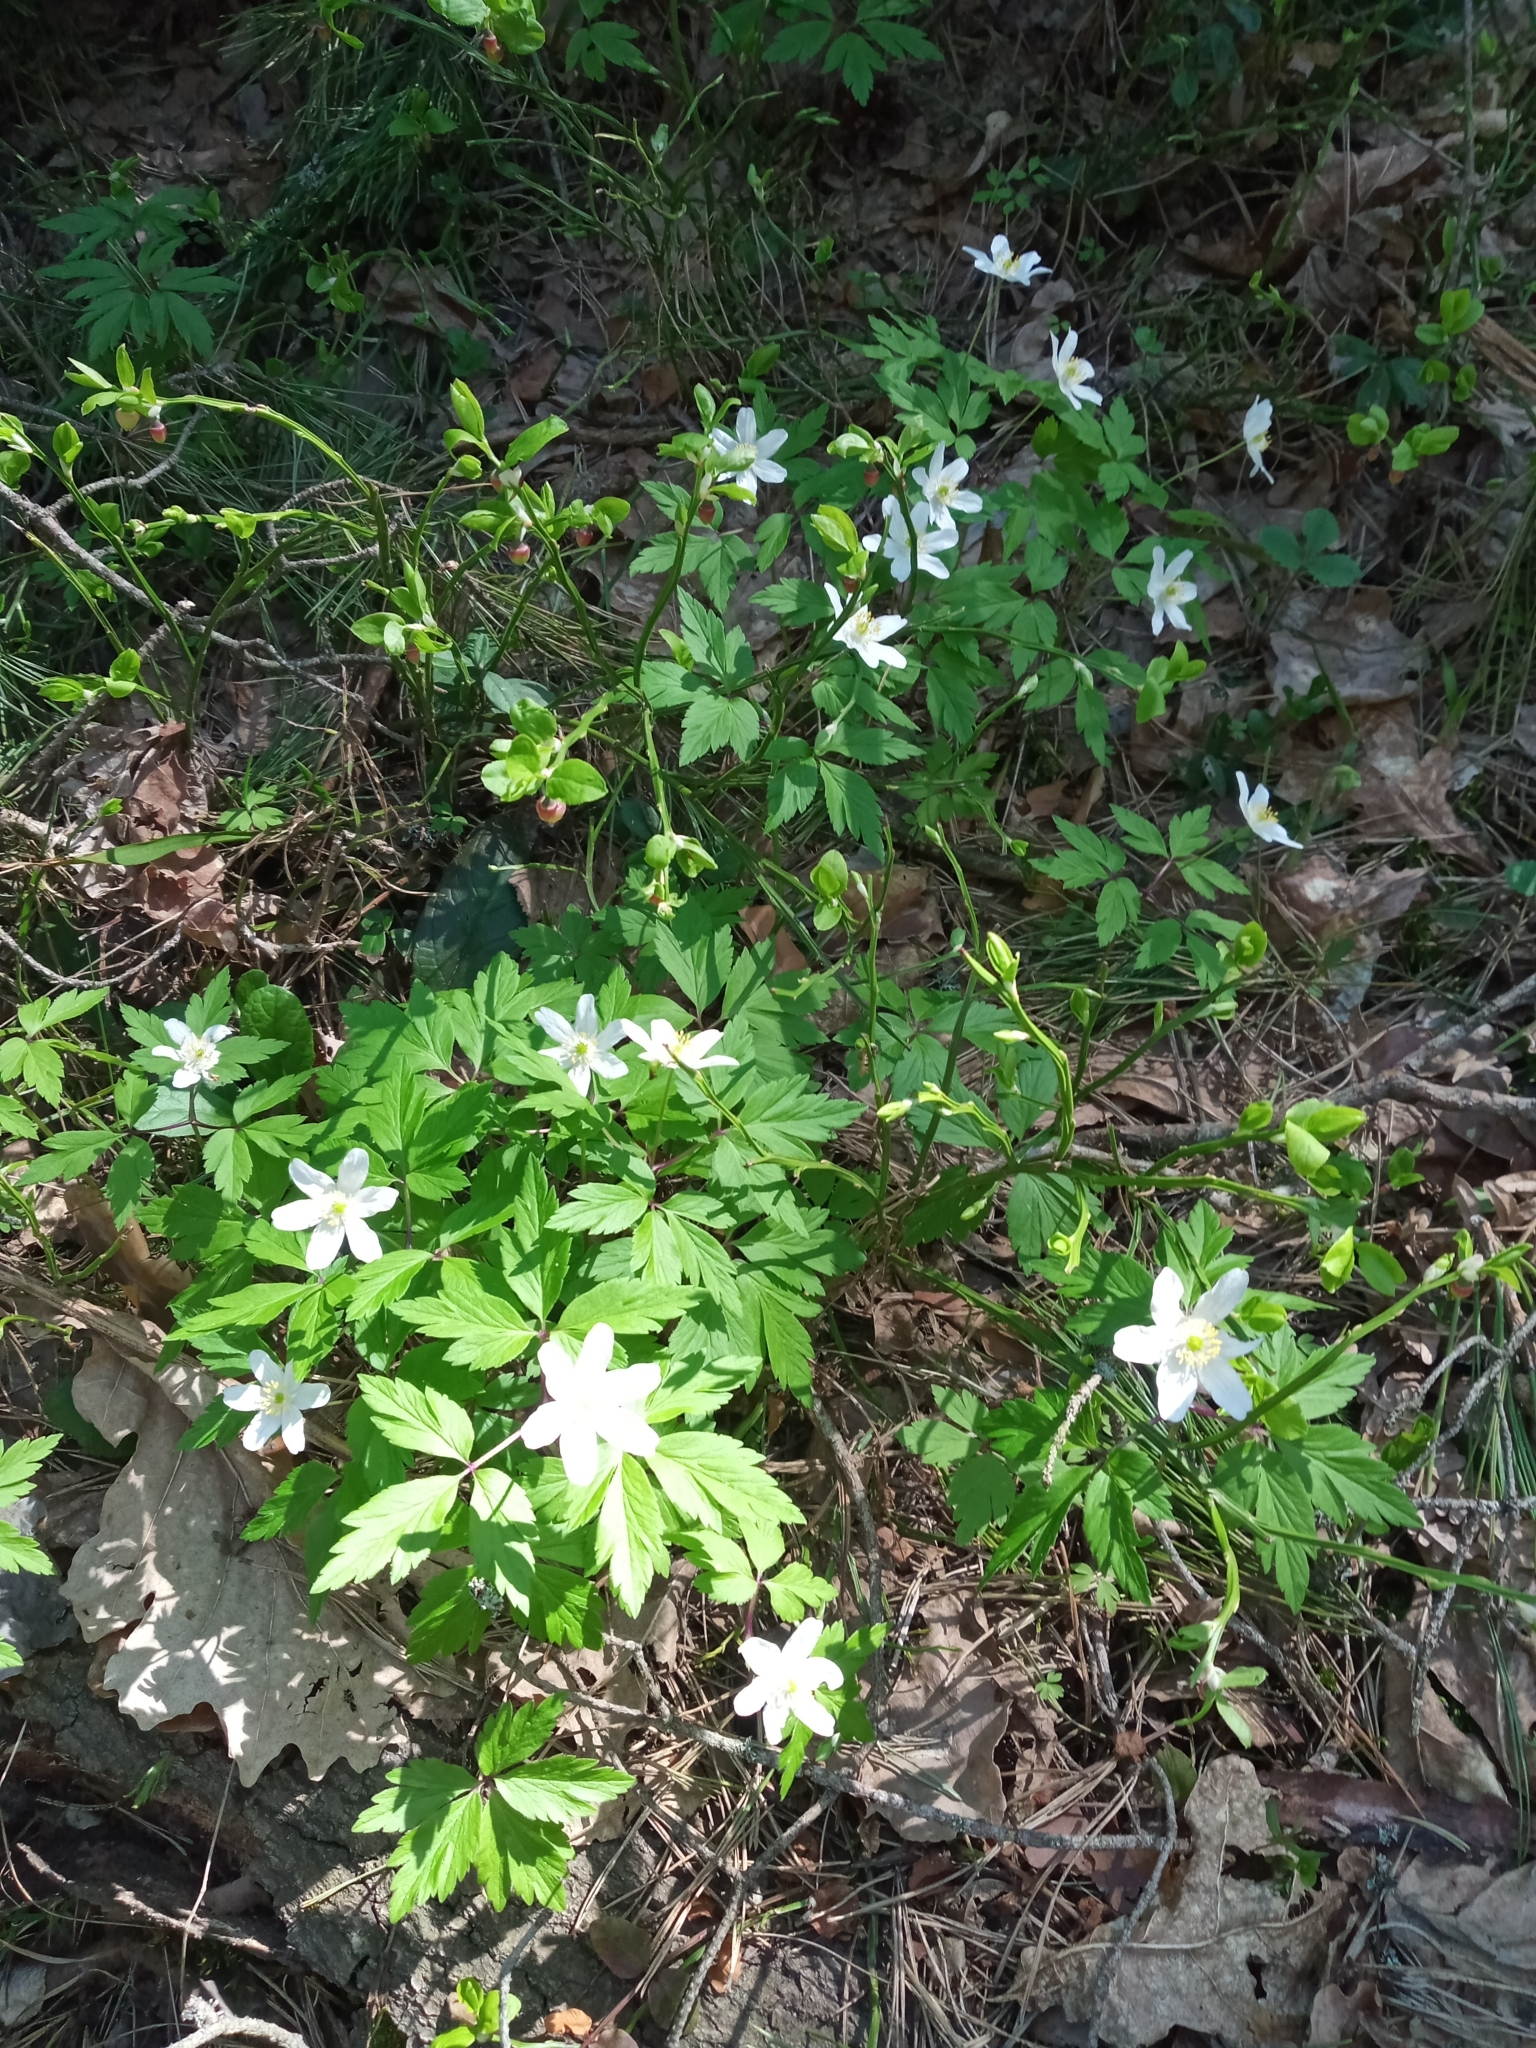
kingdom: Plantae
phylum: Tracheophyta
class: Magnoliopsida
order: Ranunculales
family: Ranunculaceae
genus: Anemone
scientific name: Anemone nemorosa
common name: Wood anemone
